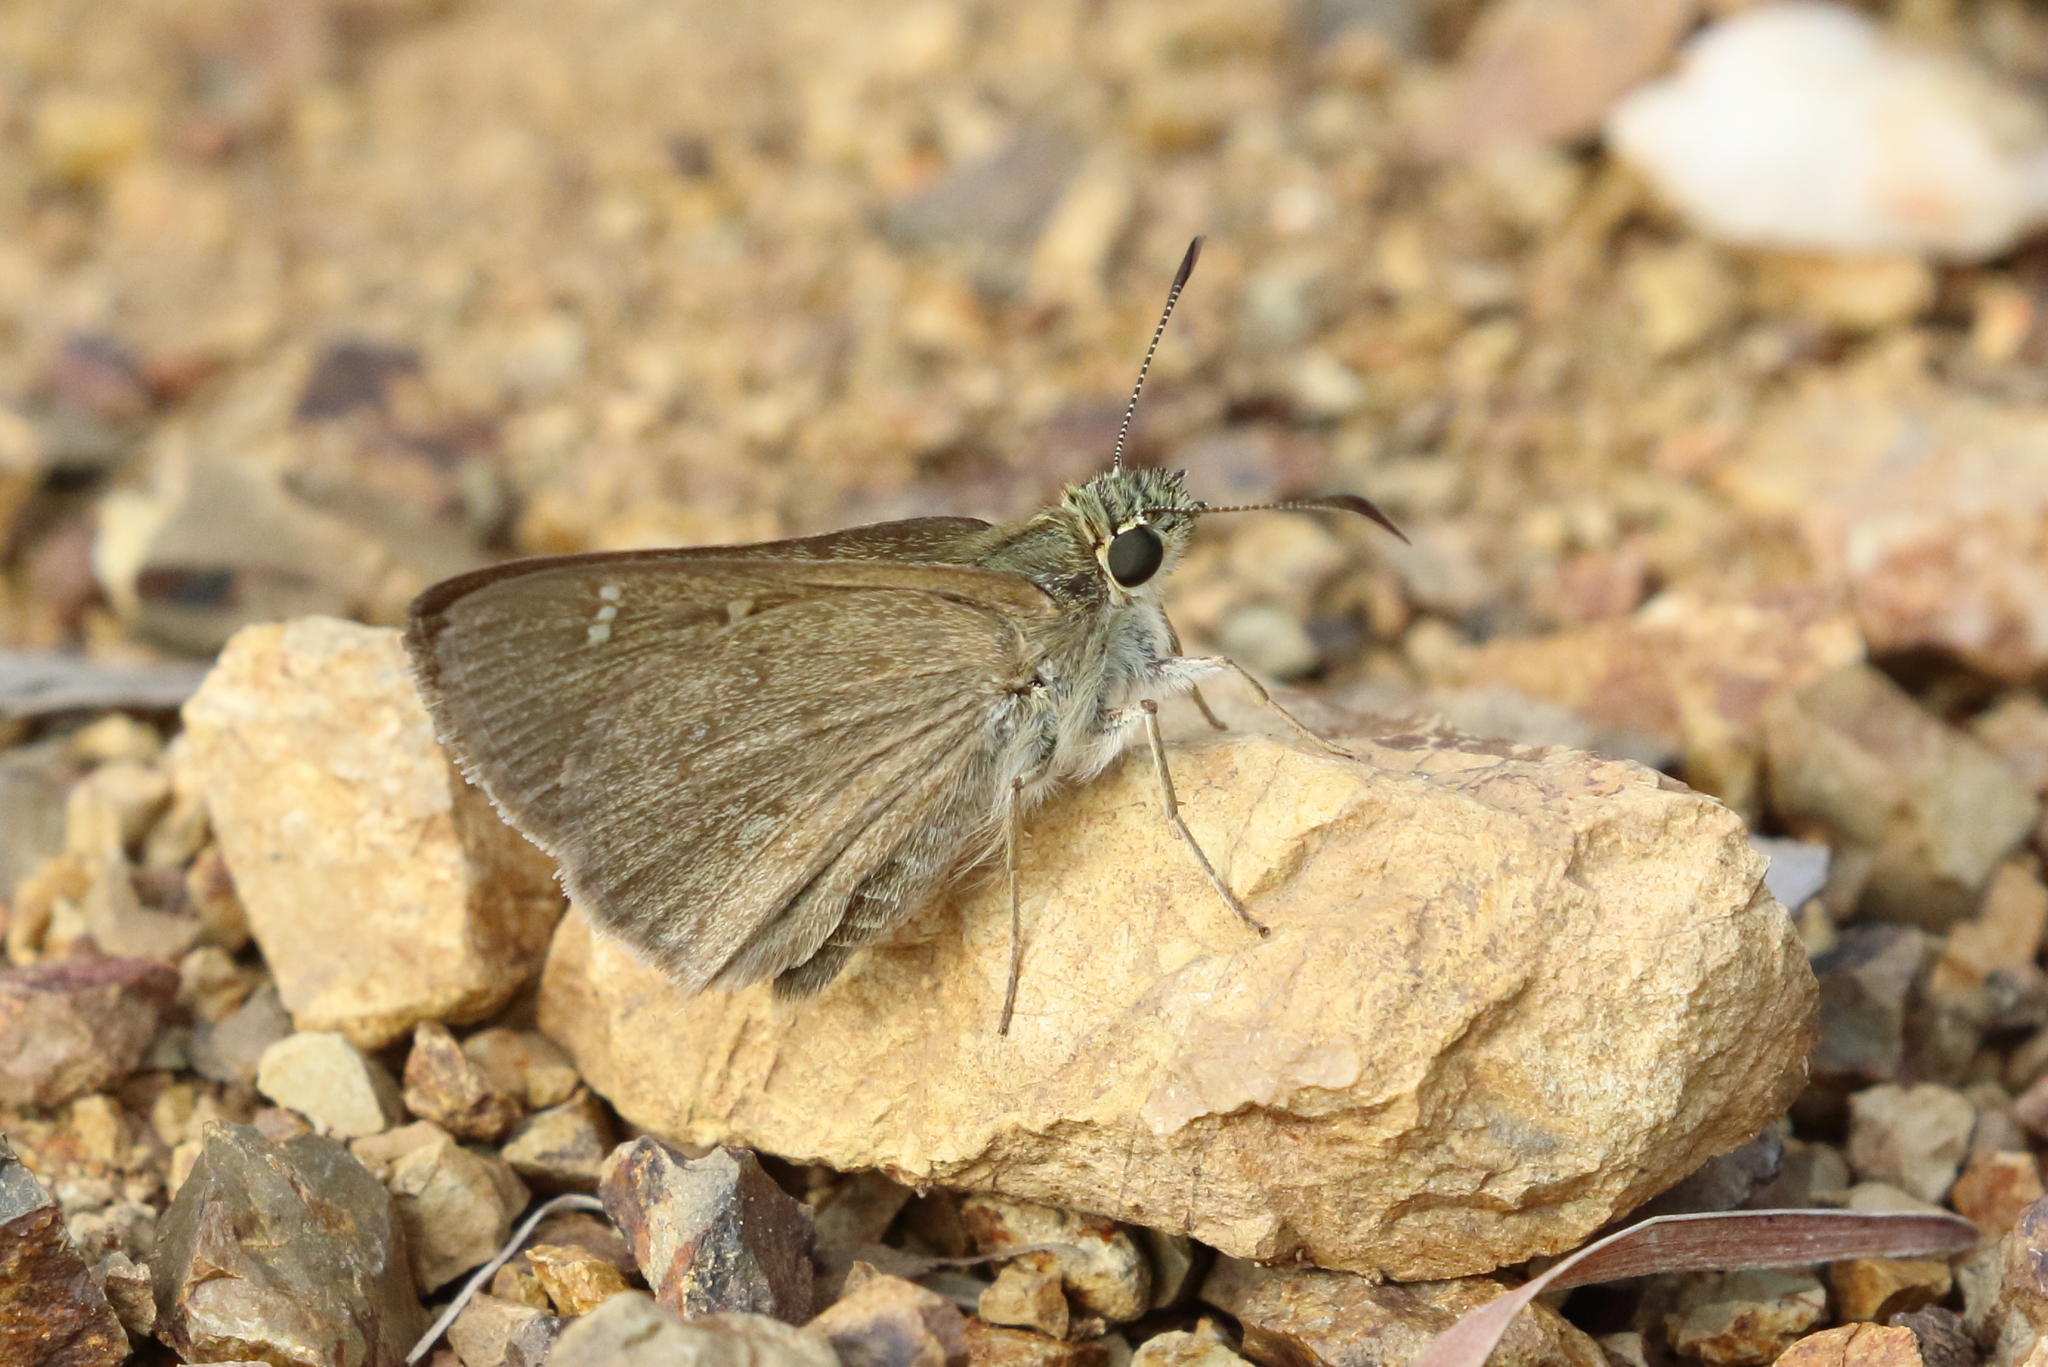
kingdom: Animalia
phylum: Arthropoda
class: Insecta
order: Lepidoptera
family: Hesperiidae
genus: Toxidia
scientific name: Toxidia
